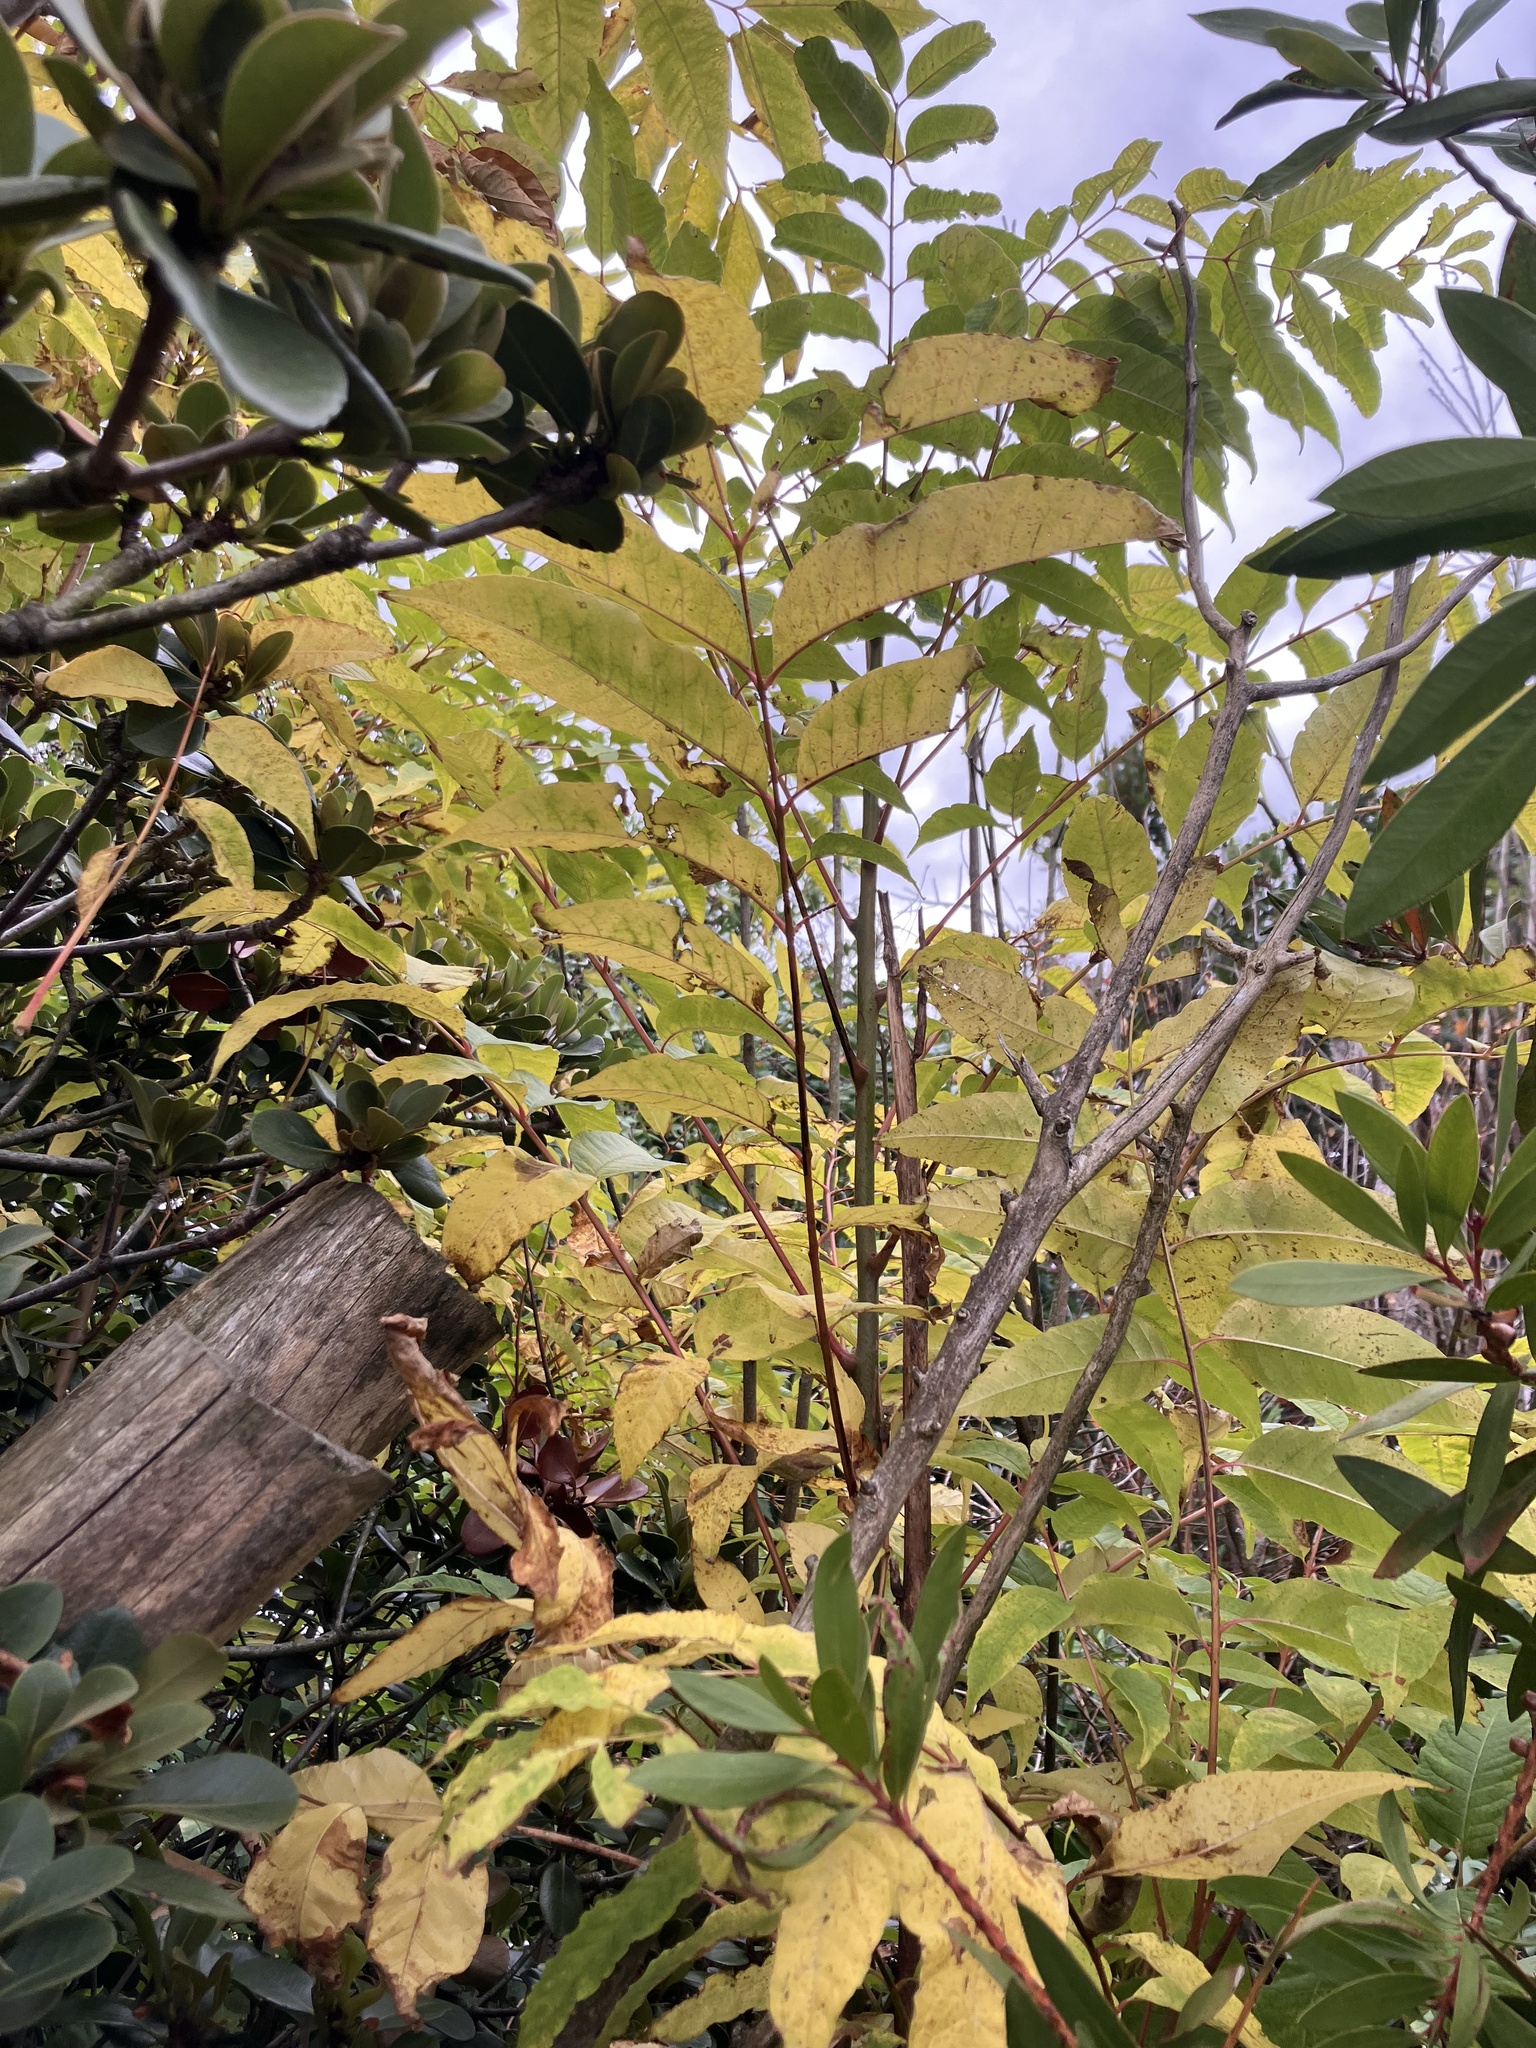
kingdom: Plantae
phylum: Tracheophyta
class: Magnoliopsida
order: Sapindales
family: Simaroubaceae
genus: Ailanthus
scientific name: Ailanthus altissima
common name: Tree-of-heaven
